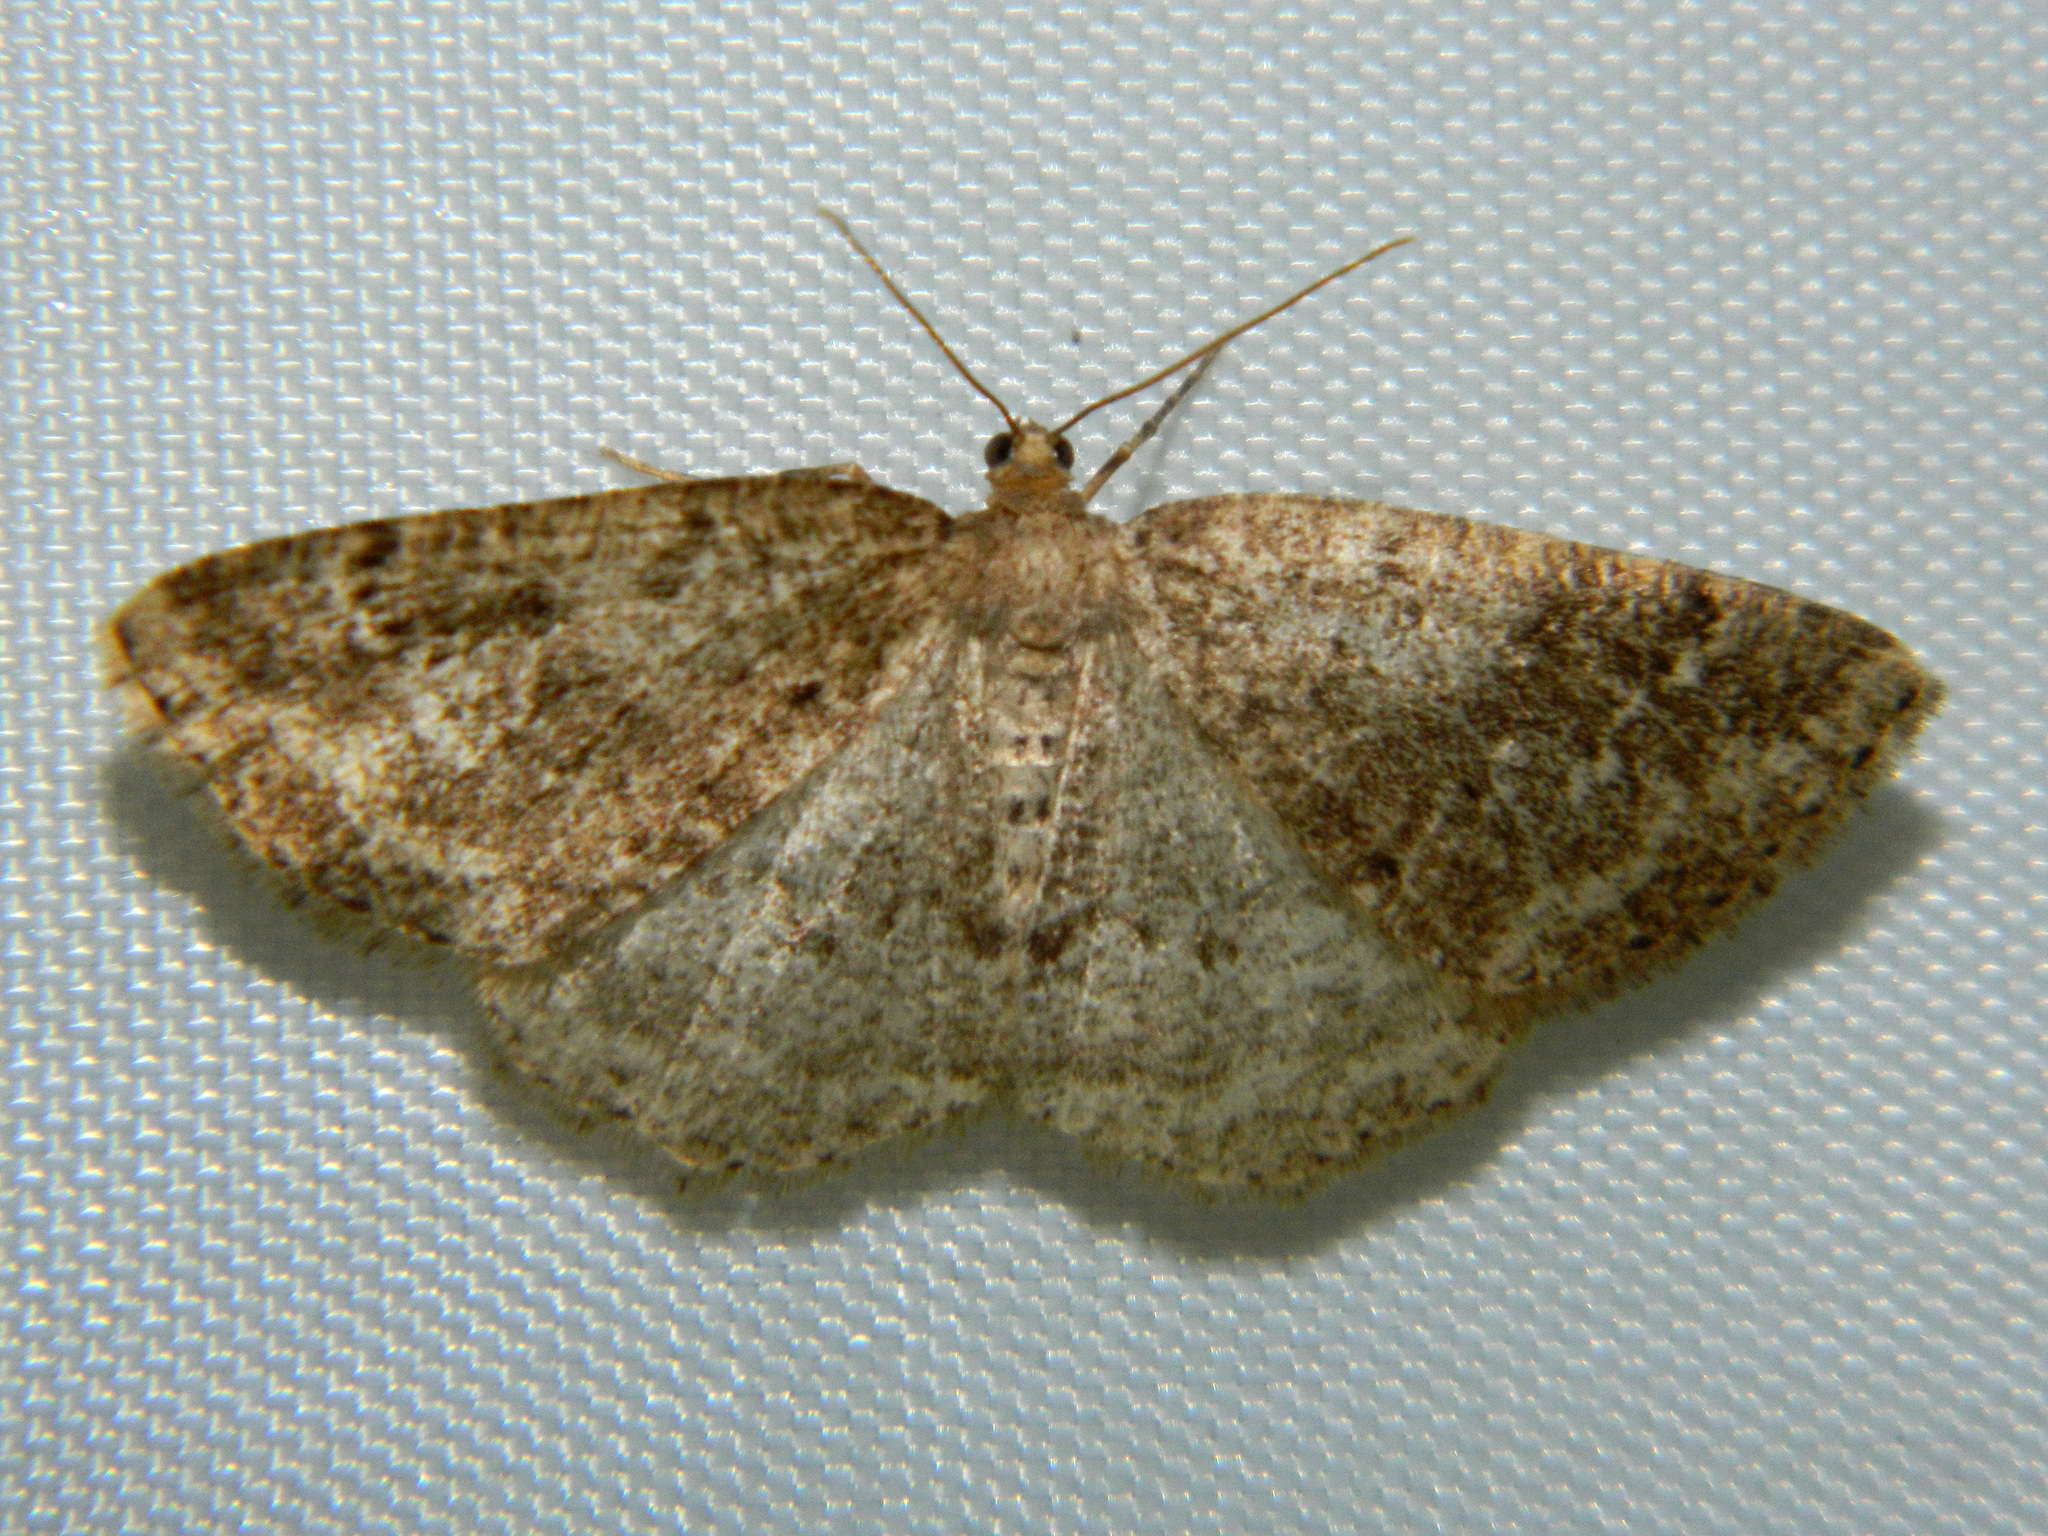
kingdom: Animalia
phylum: Arthropoda
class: Insecta
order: Lepidoptera
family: Geometridae
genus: Homochlodes
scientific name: Homochlodes fritillaria
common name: Pale homochlodes
